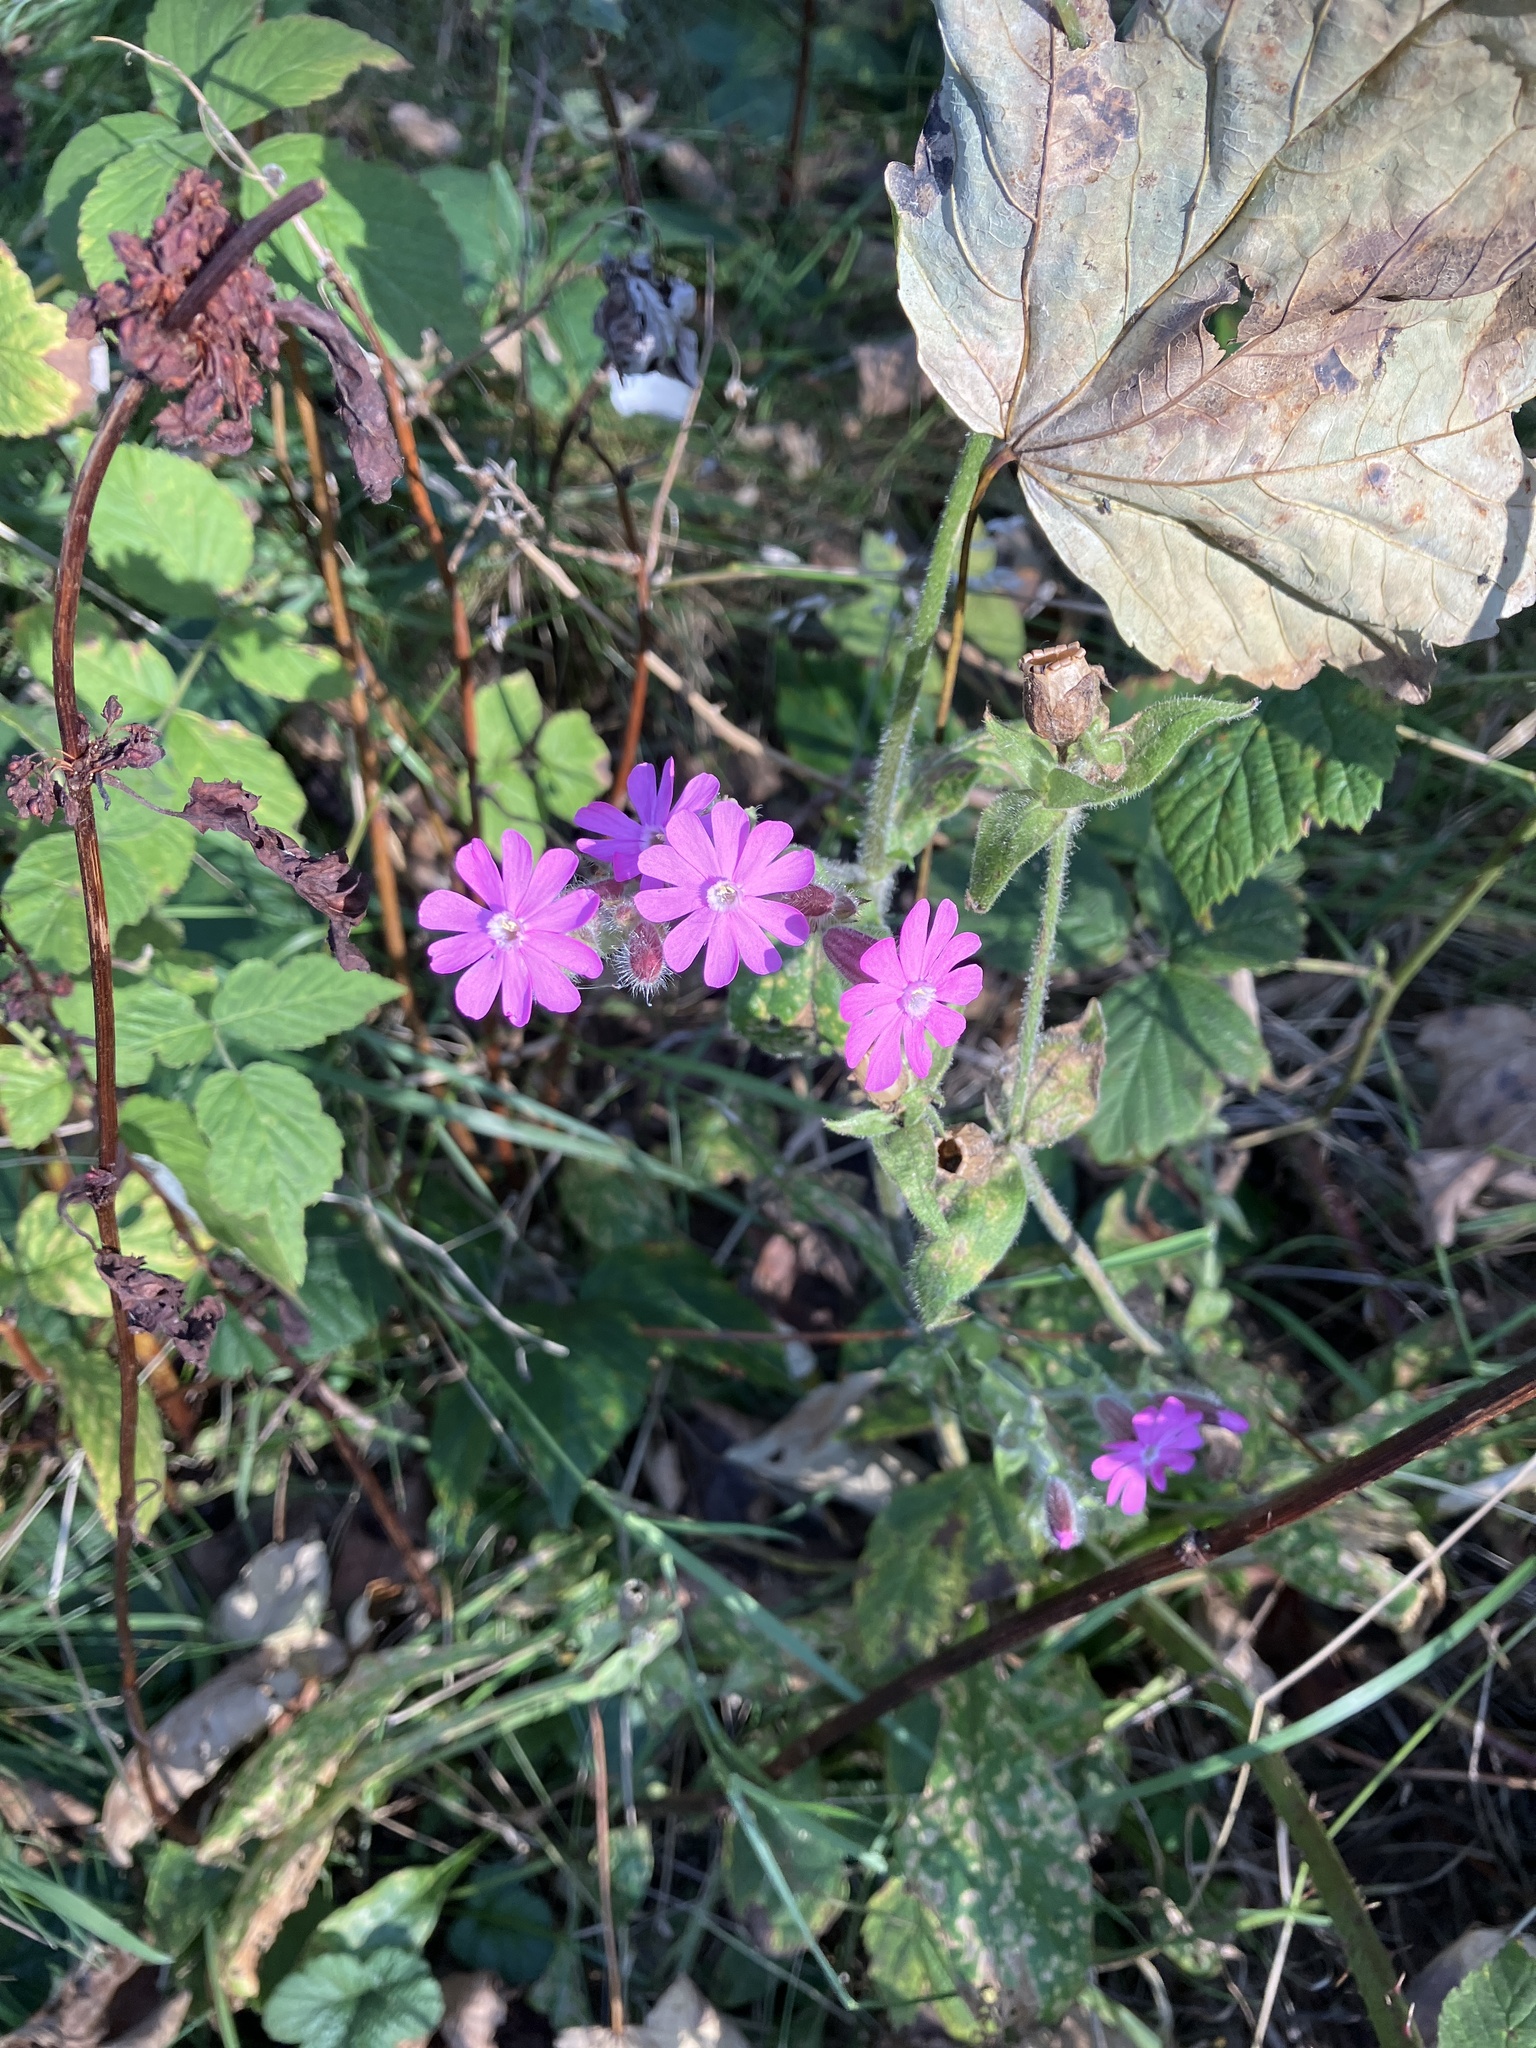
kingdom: Plantae
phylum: Tracheophyta
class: Magnoliopsida
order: Caryophyllales
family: Caryophyllaceae
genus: Silene
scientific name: Silene dioica
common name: Red campion
